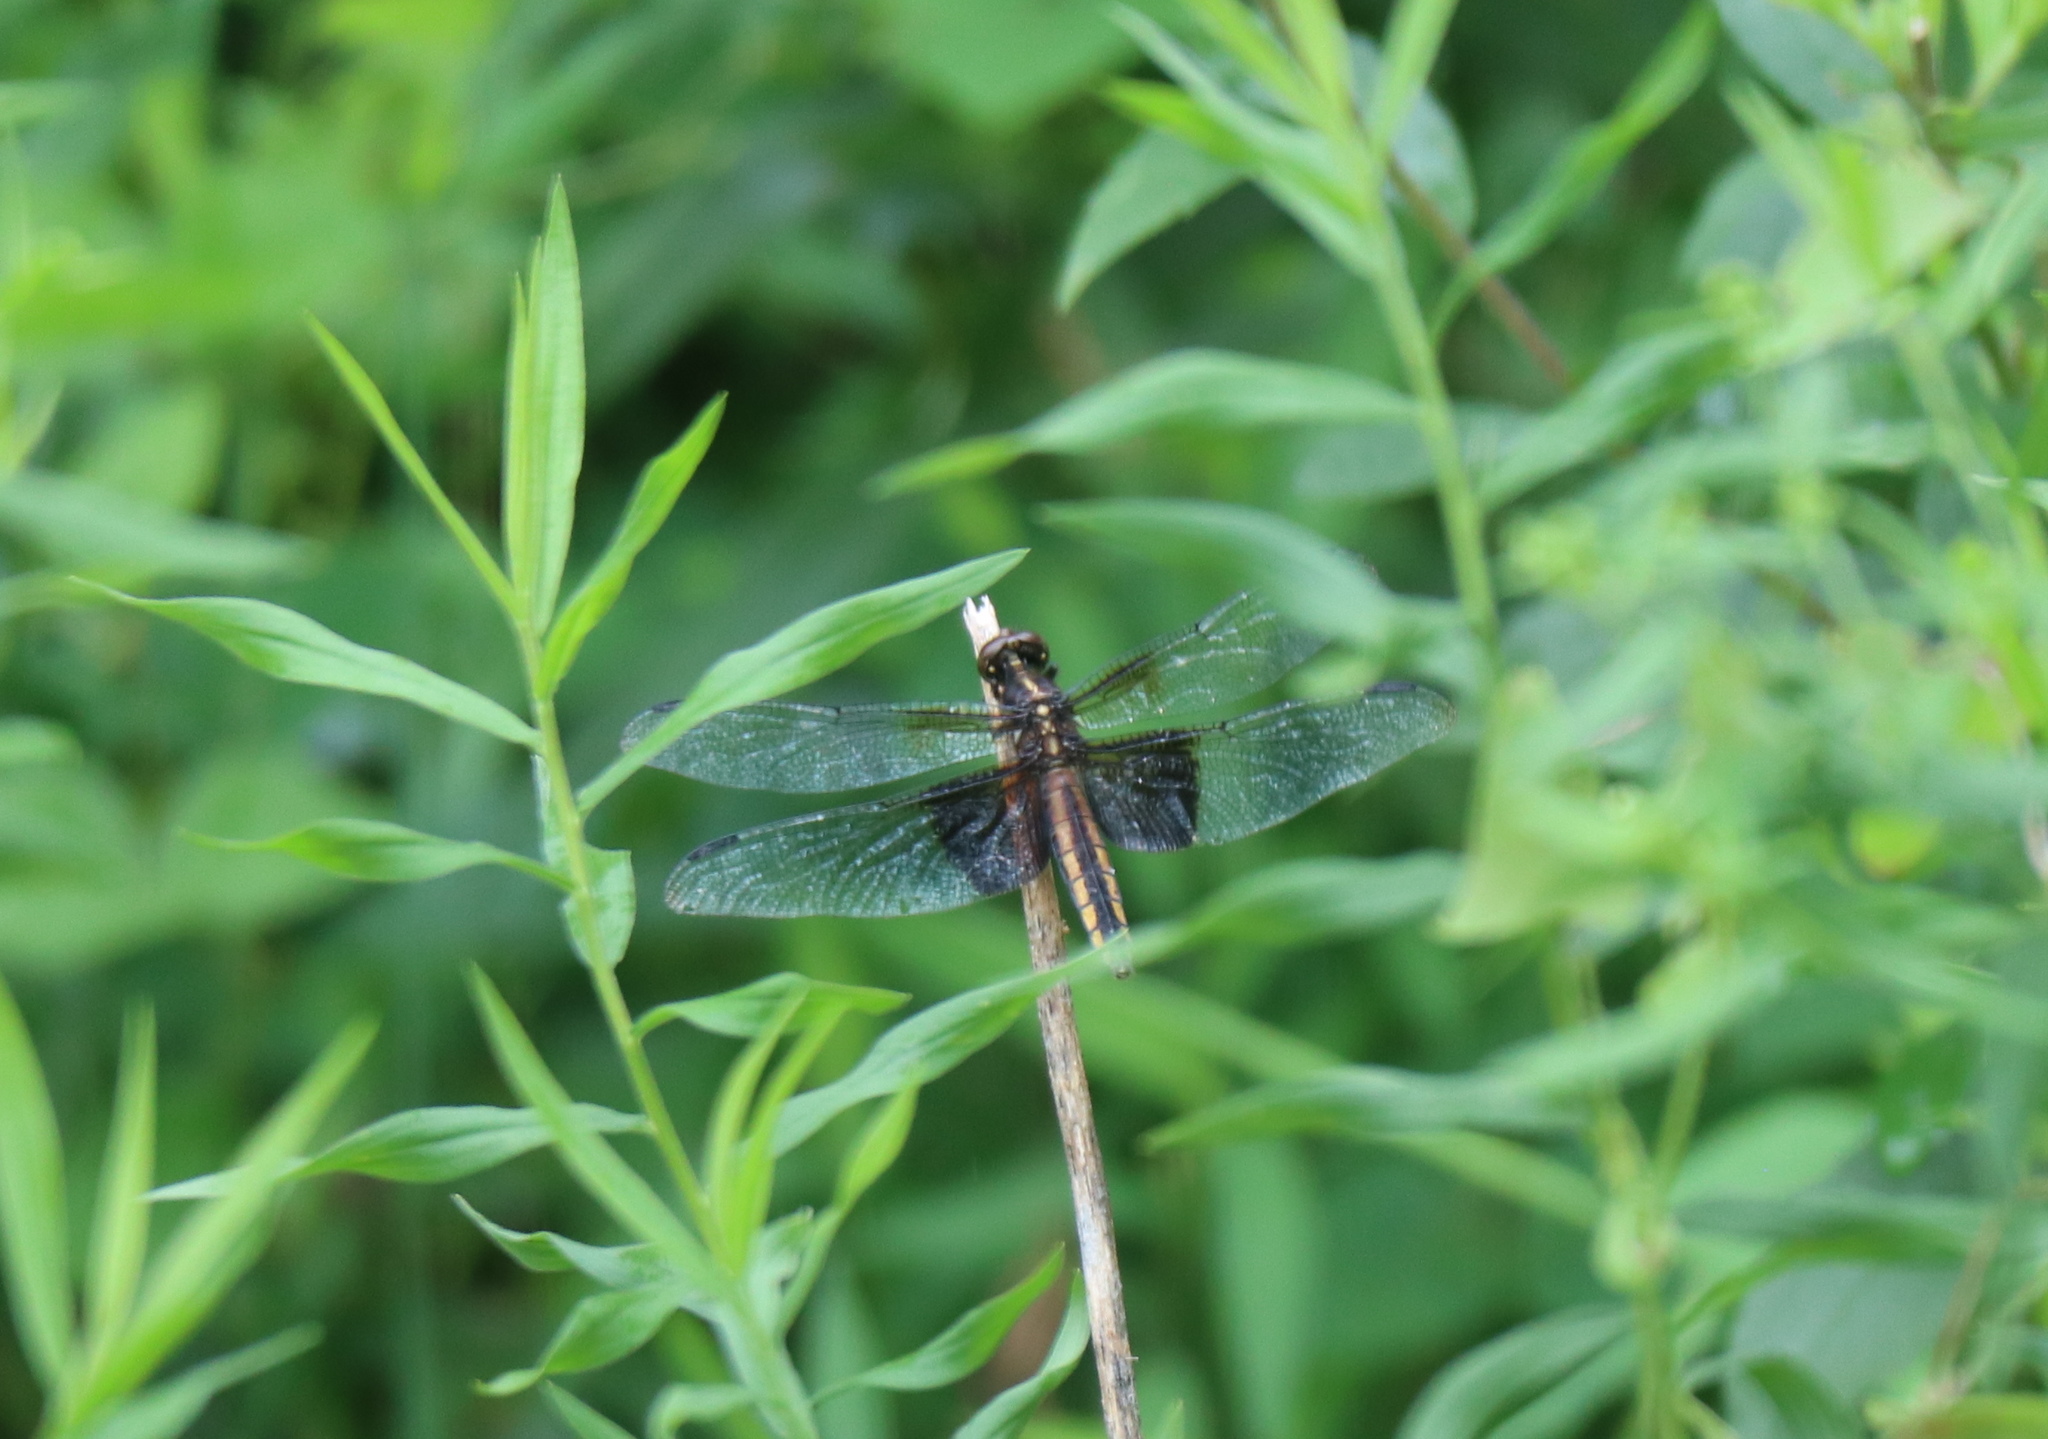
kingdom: Animalia
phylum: Arthropoda
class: Insecta
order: Odonata
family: Libellulidae
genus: Libellula
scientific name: Libellula luctuosa
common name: Widow skimmer
